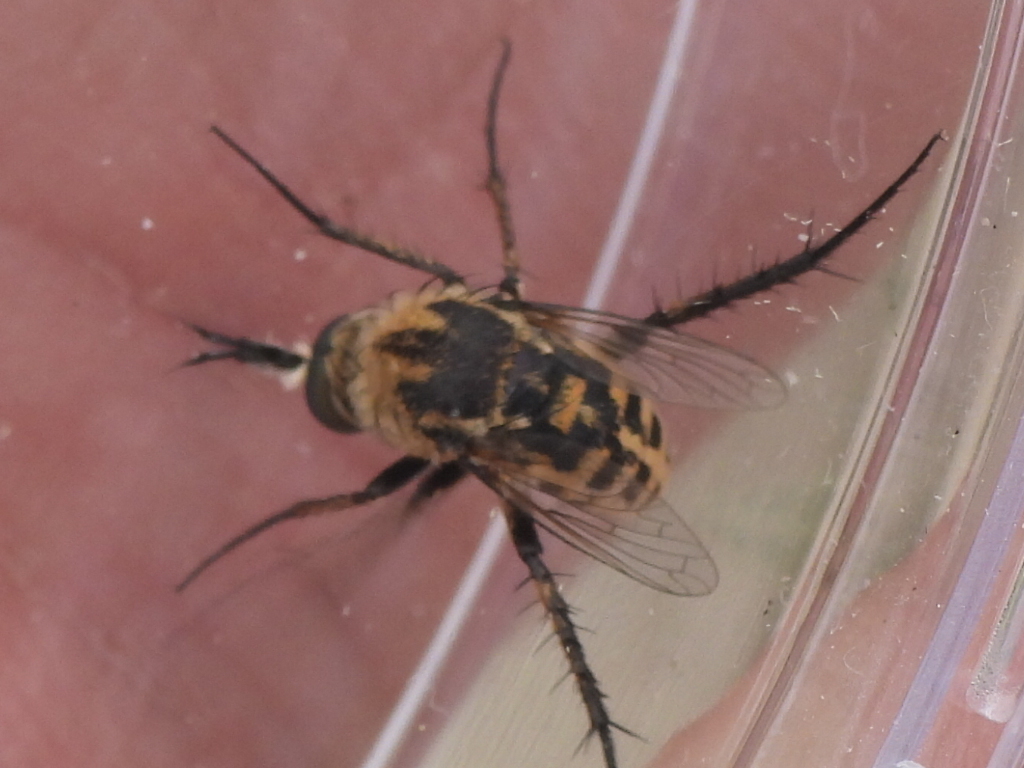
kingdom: Animalia
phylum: Arthropoda
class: Insecta
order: Diptera
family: Bombyliidae
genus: Toxophora
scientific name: Toxophora amphitea
